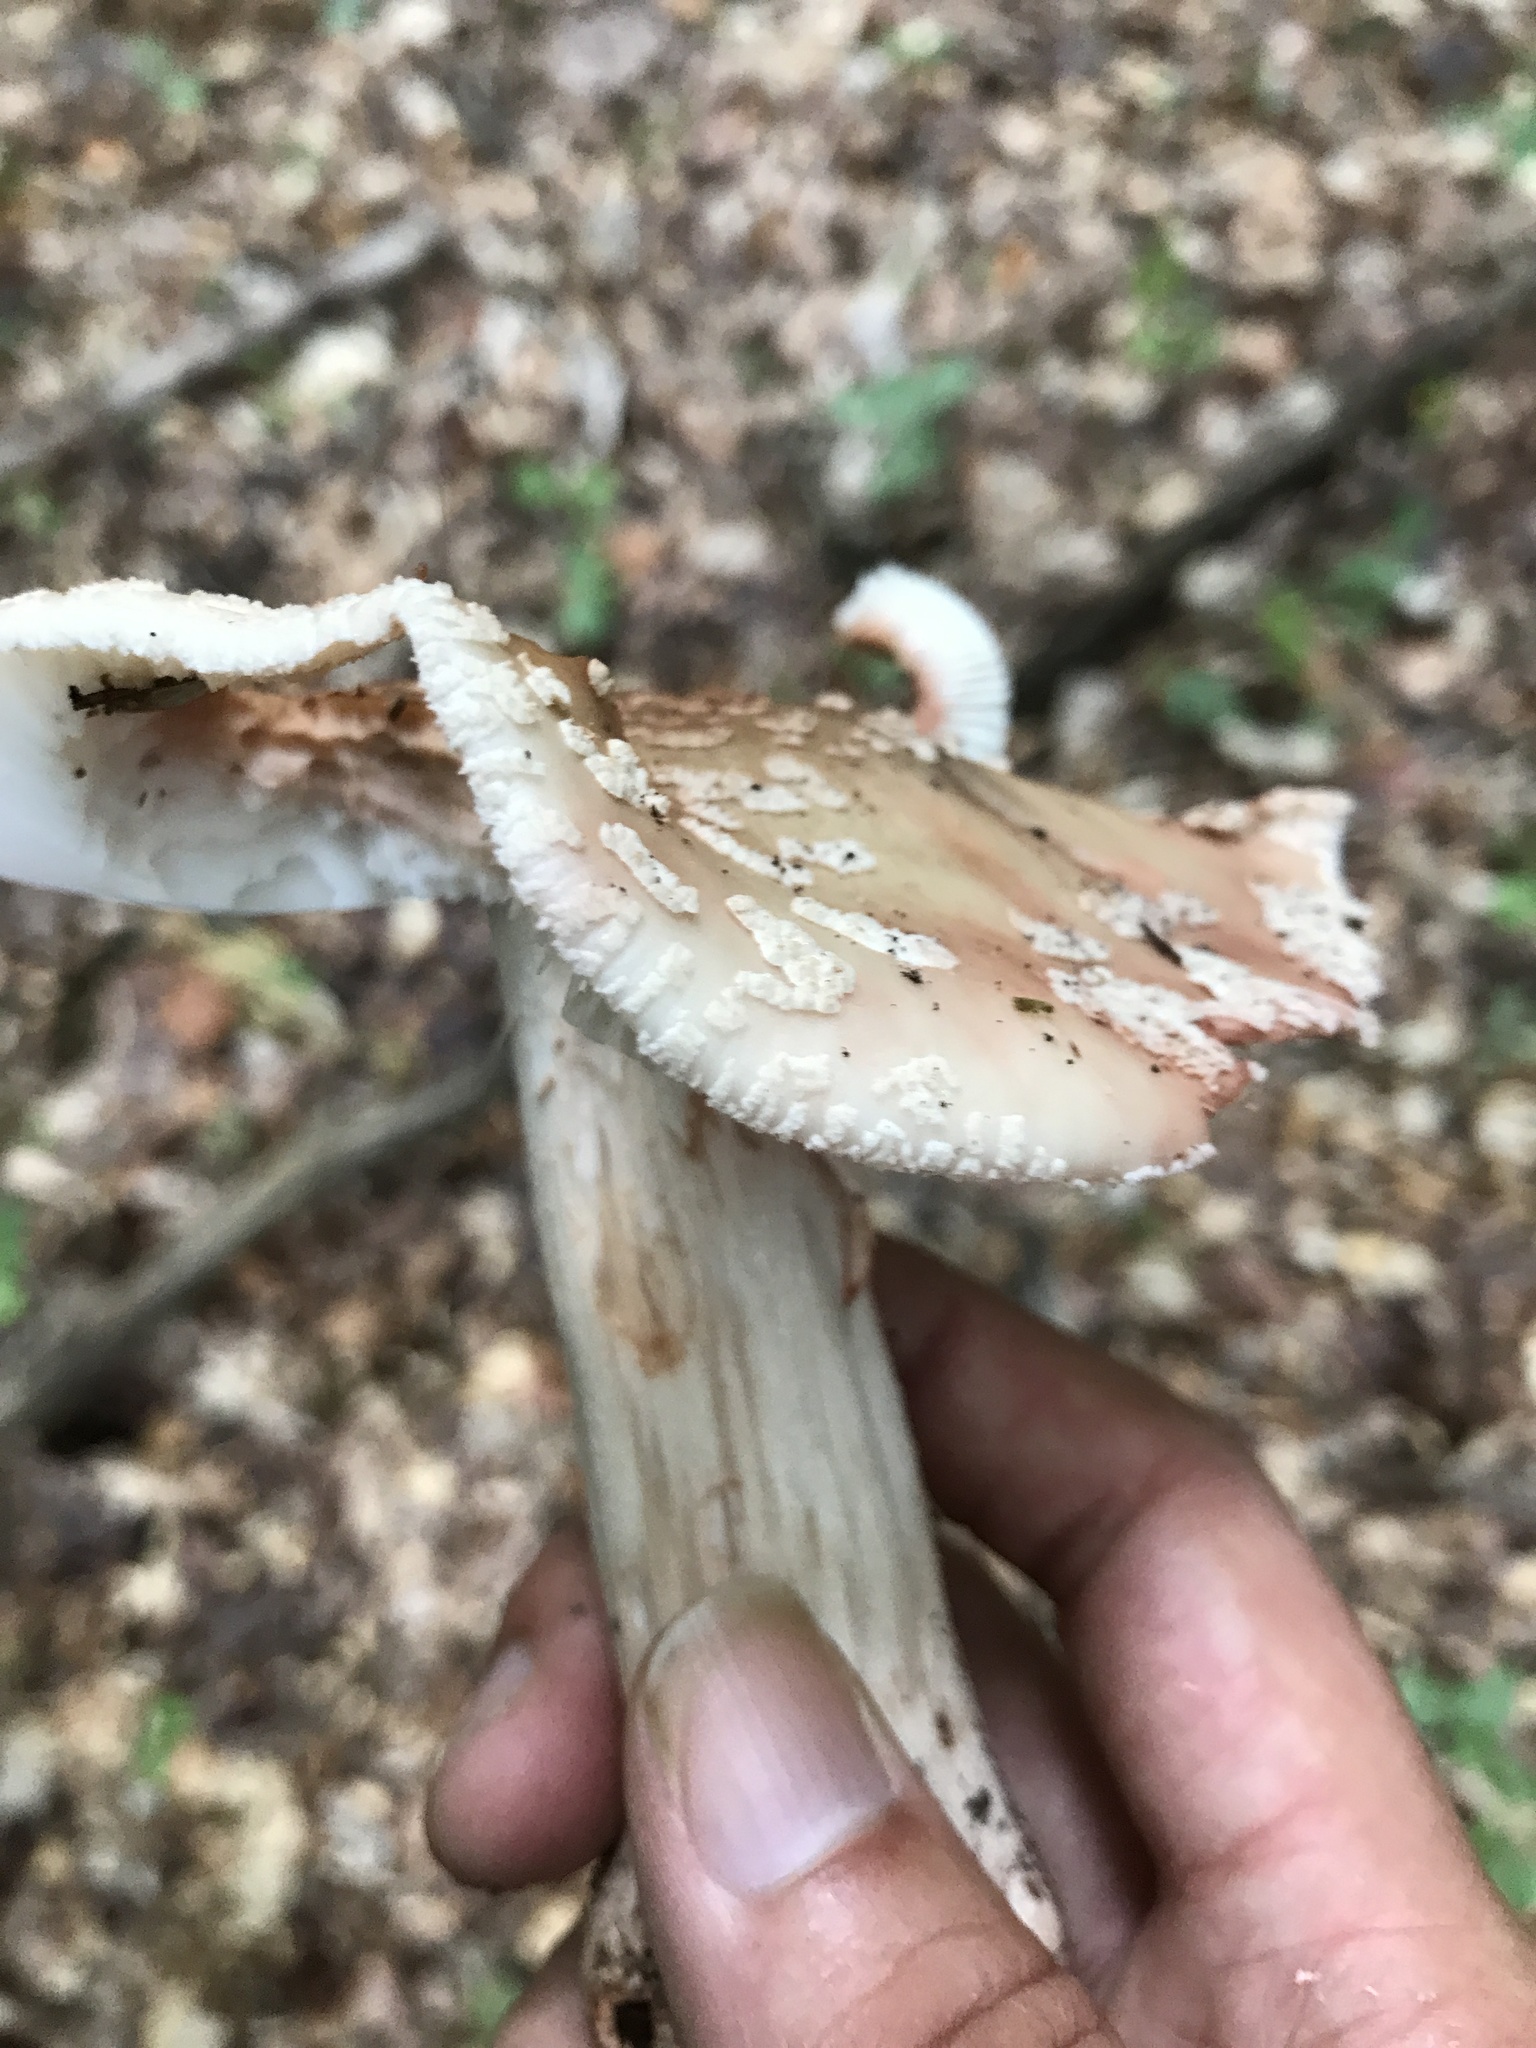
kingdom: Fungi
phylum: Basidiomycota
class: Agaricomycetes
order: Agaricales
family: Amanitaceae
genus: Amanita
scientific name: Amanita rubescens
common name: Blusher
